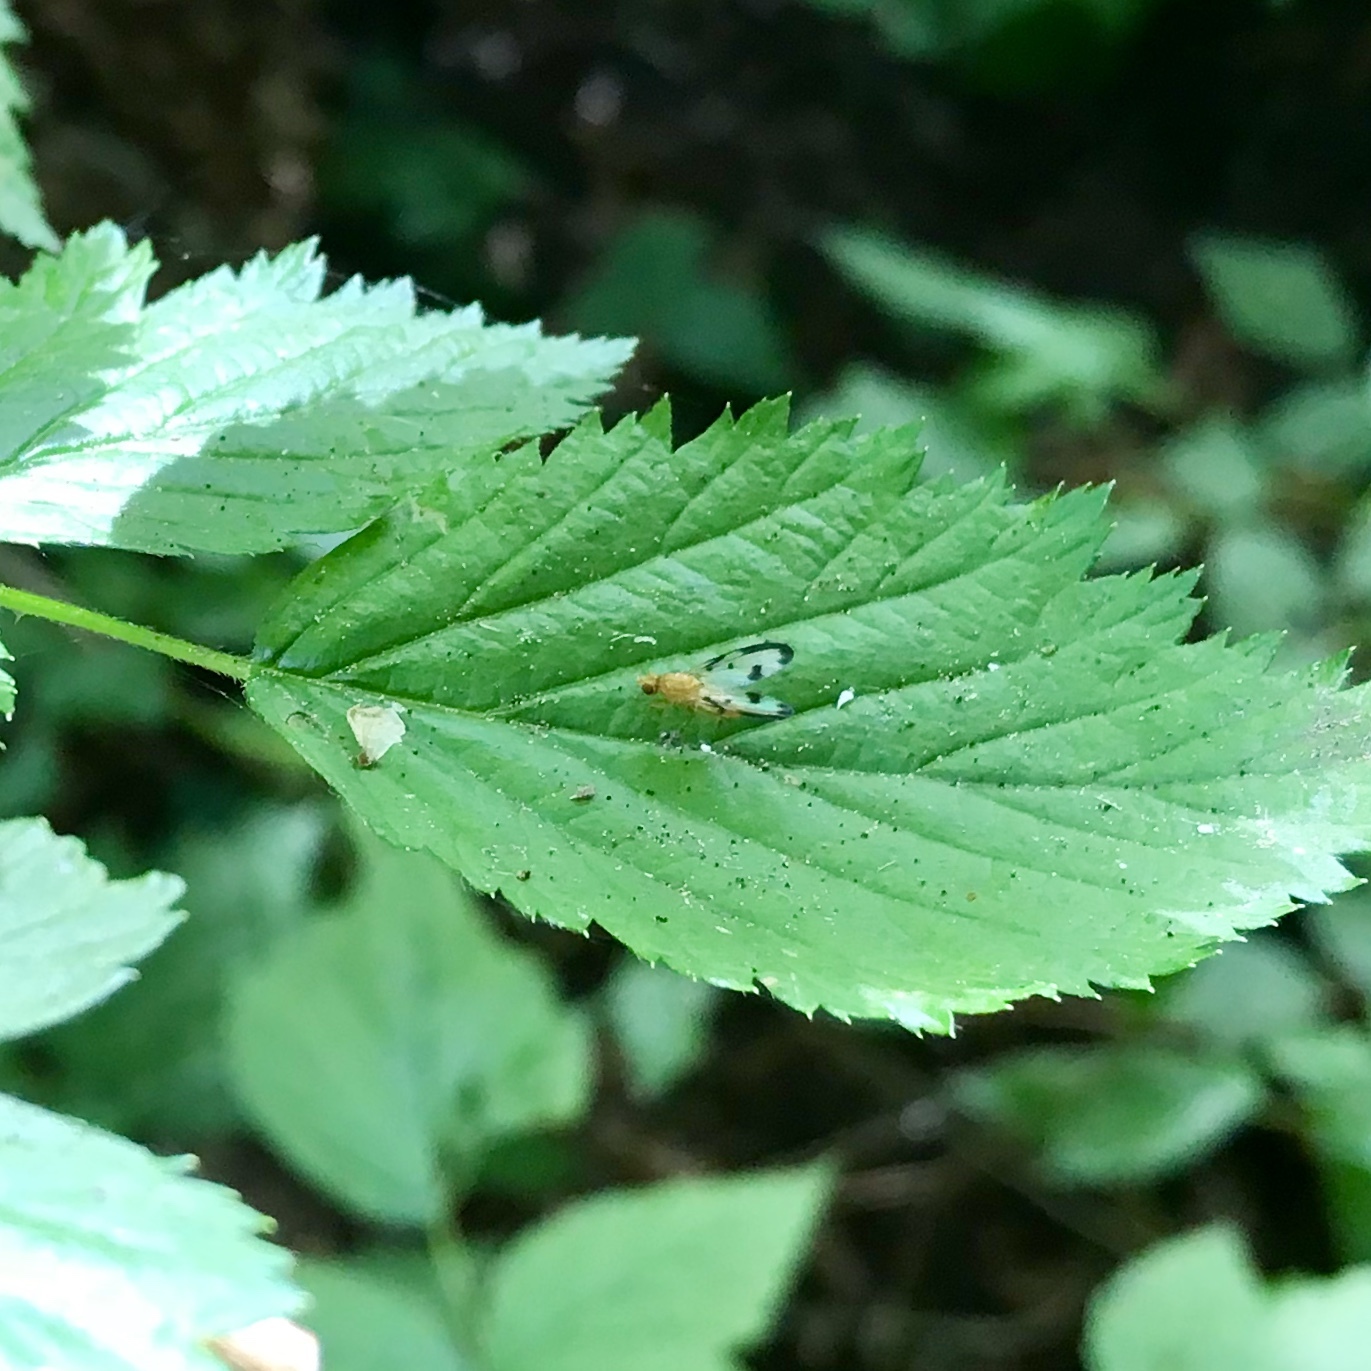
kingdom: Animalia
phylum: Arthropoda
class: Insecta
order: Diptera
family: Pallopteridae
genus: Toxonevra
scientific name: Toxonevra jucunda
